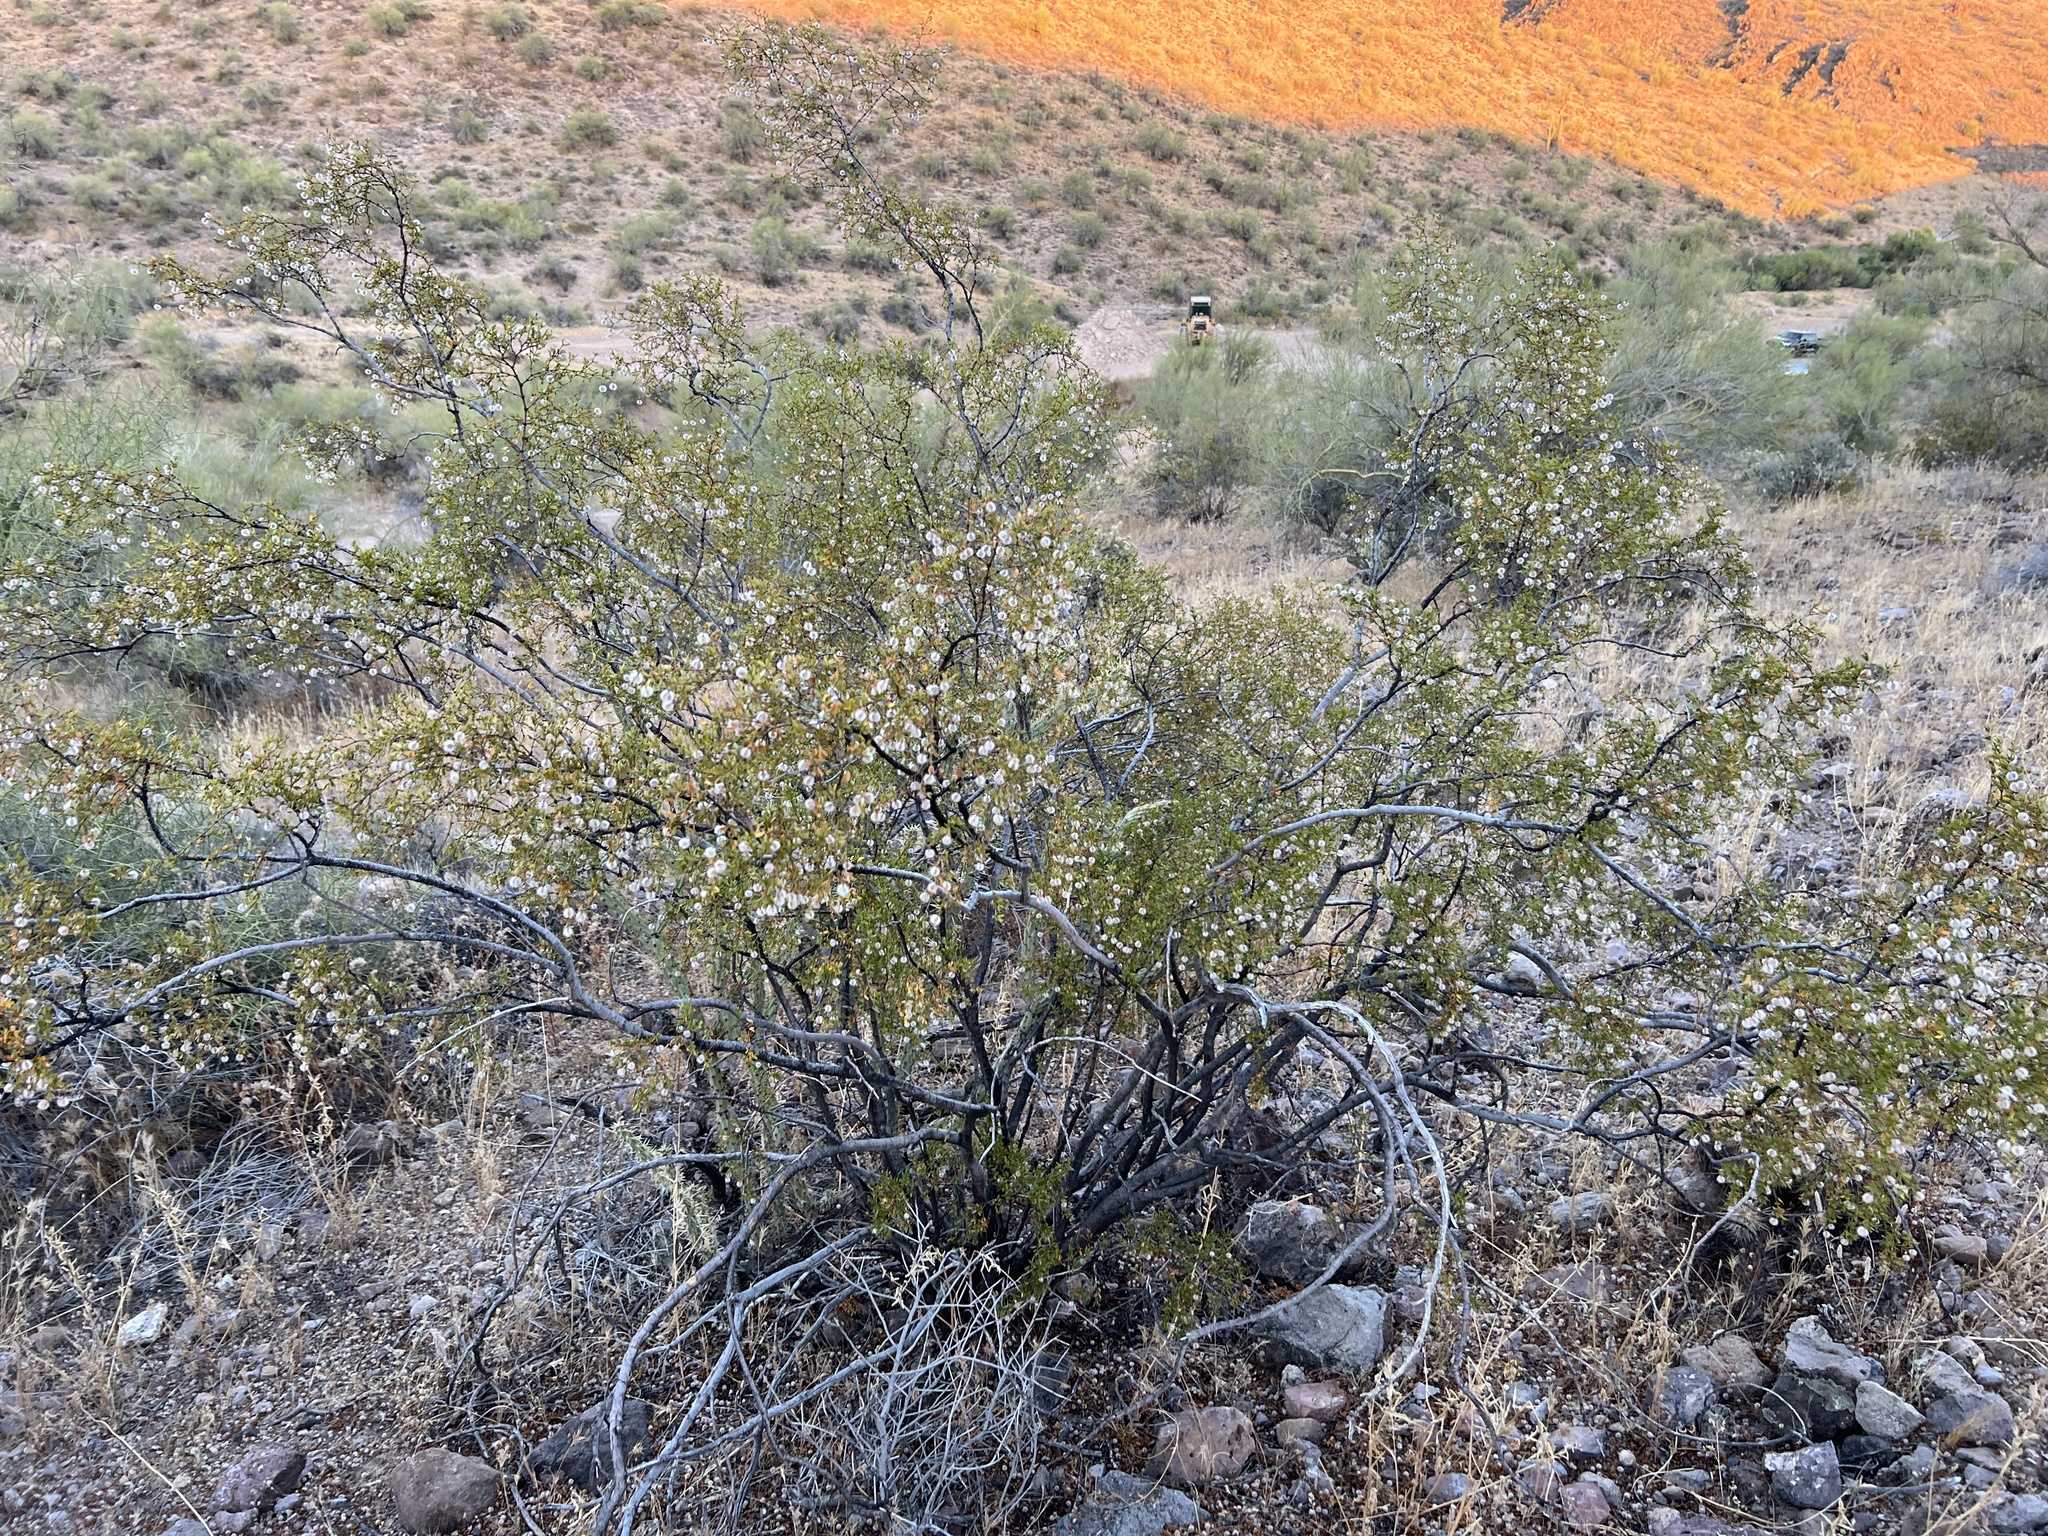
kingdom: Plantae
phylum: Tracheophyta
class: Magnoliopsida
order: Zygophyllales
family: Zygophyllaceae
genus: Larrea
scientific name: Larrea tridentata
